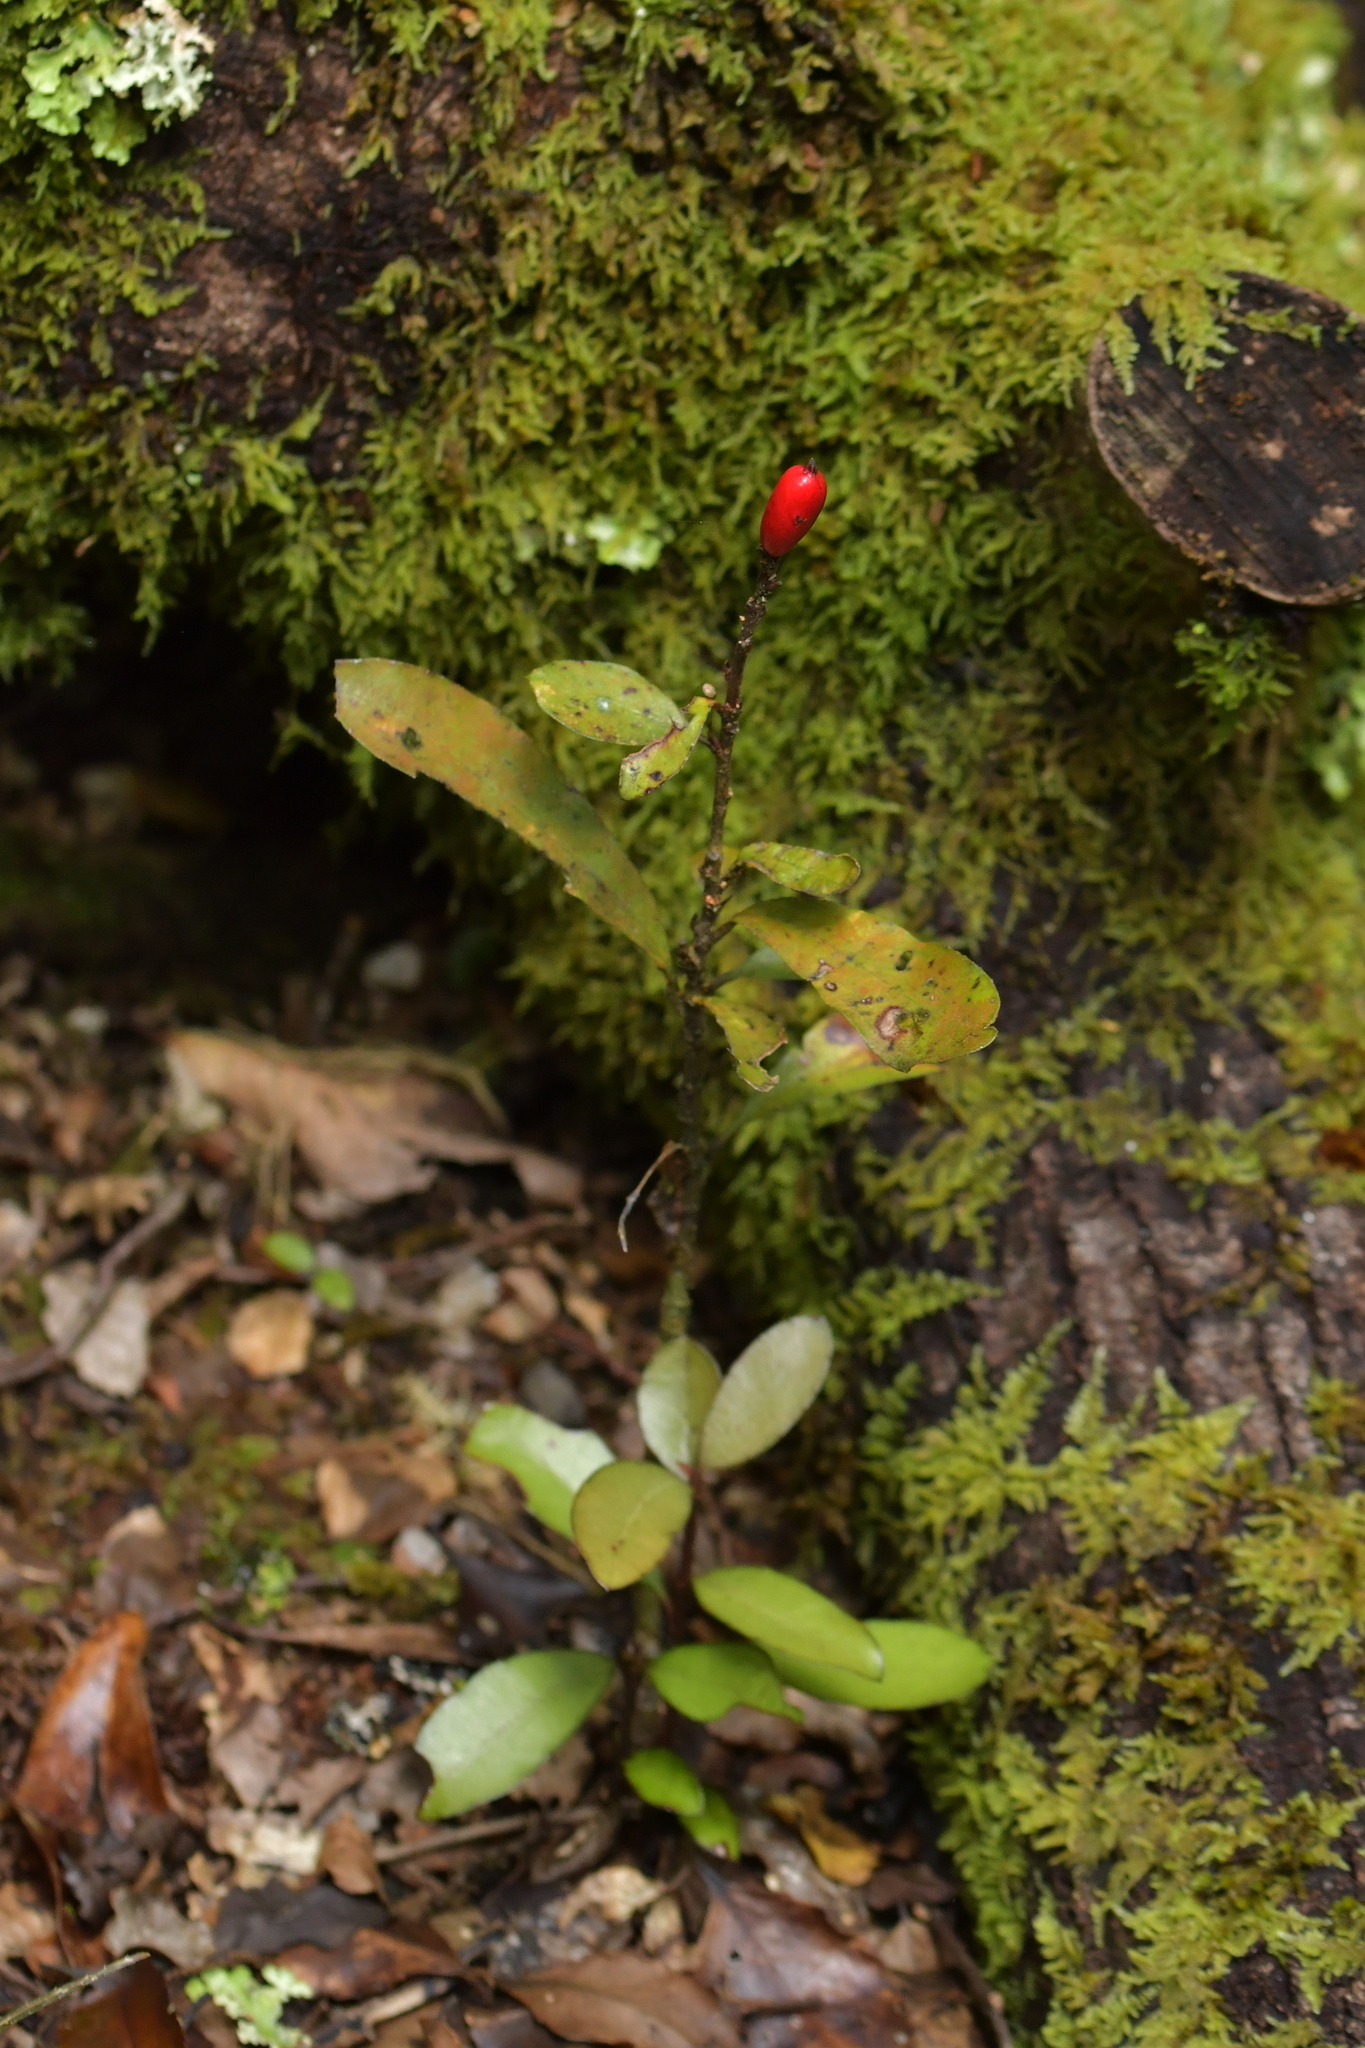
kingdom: Plantae
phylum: Tracheophyta
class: Magnoliopsida
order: Asterales
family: Alseuosmiaceae
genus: Alseuosmia
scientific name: Alseuosmia pusilla
